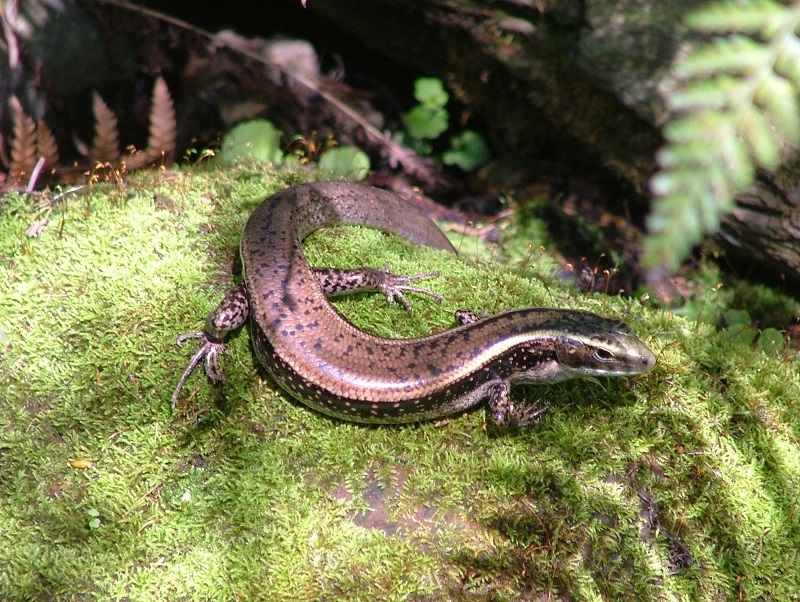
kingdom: Animalia
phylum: Chordata
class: Squamata
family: Scincidae
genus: Eulamprus
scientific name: Eulamprus quoyii
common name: Eastern water skink
